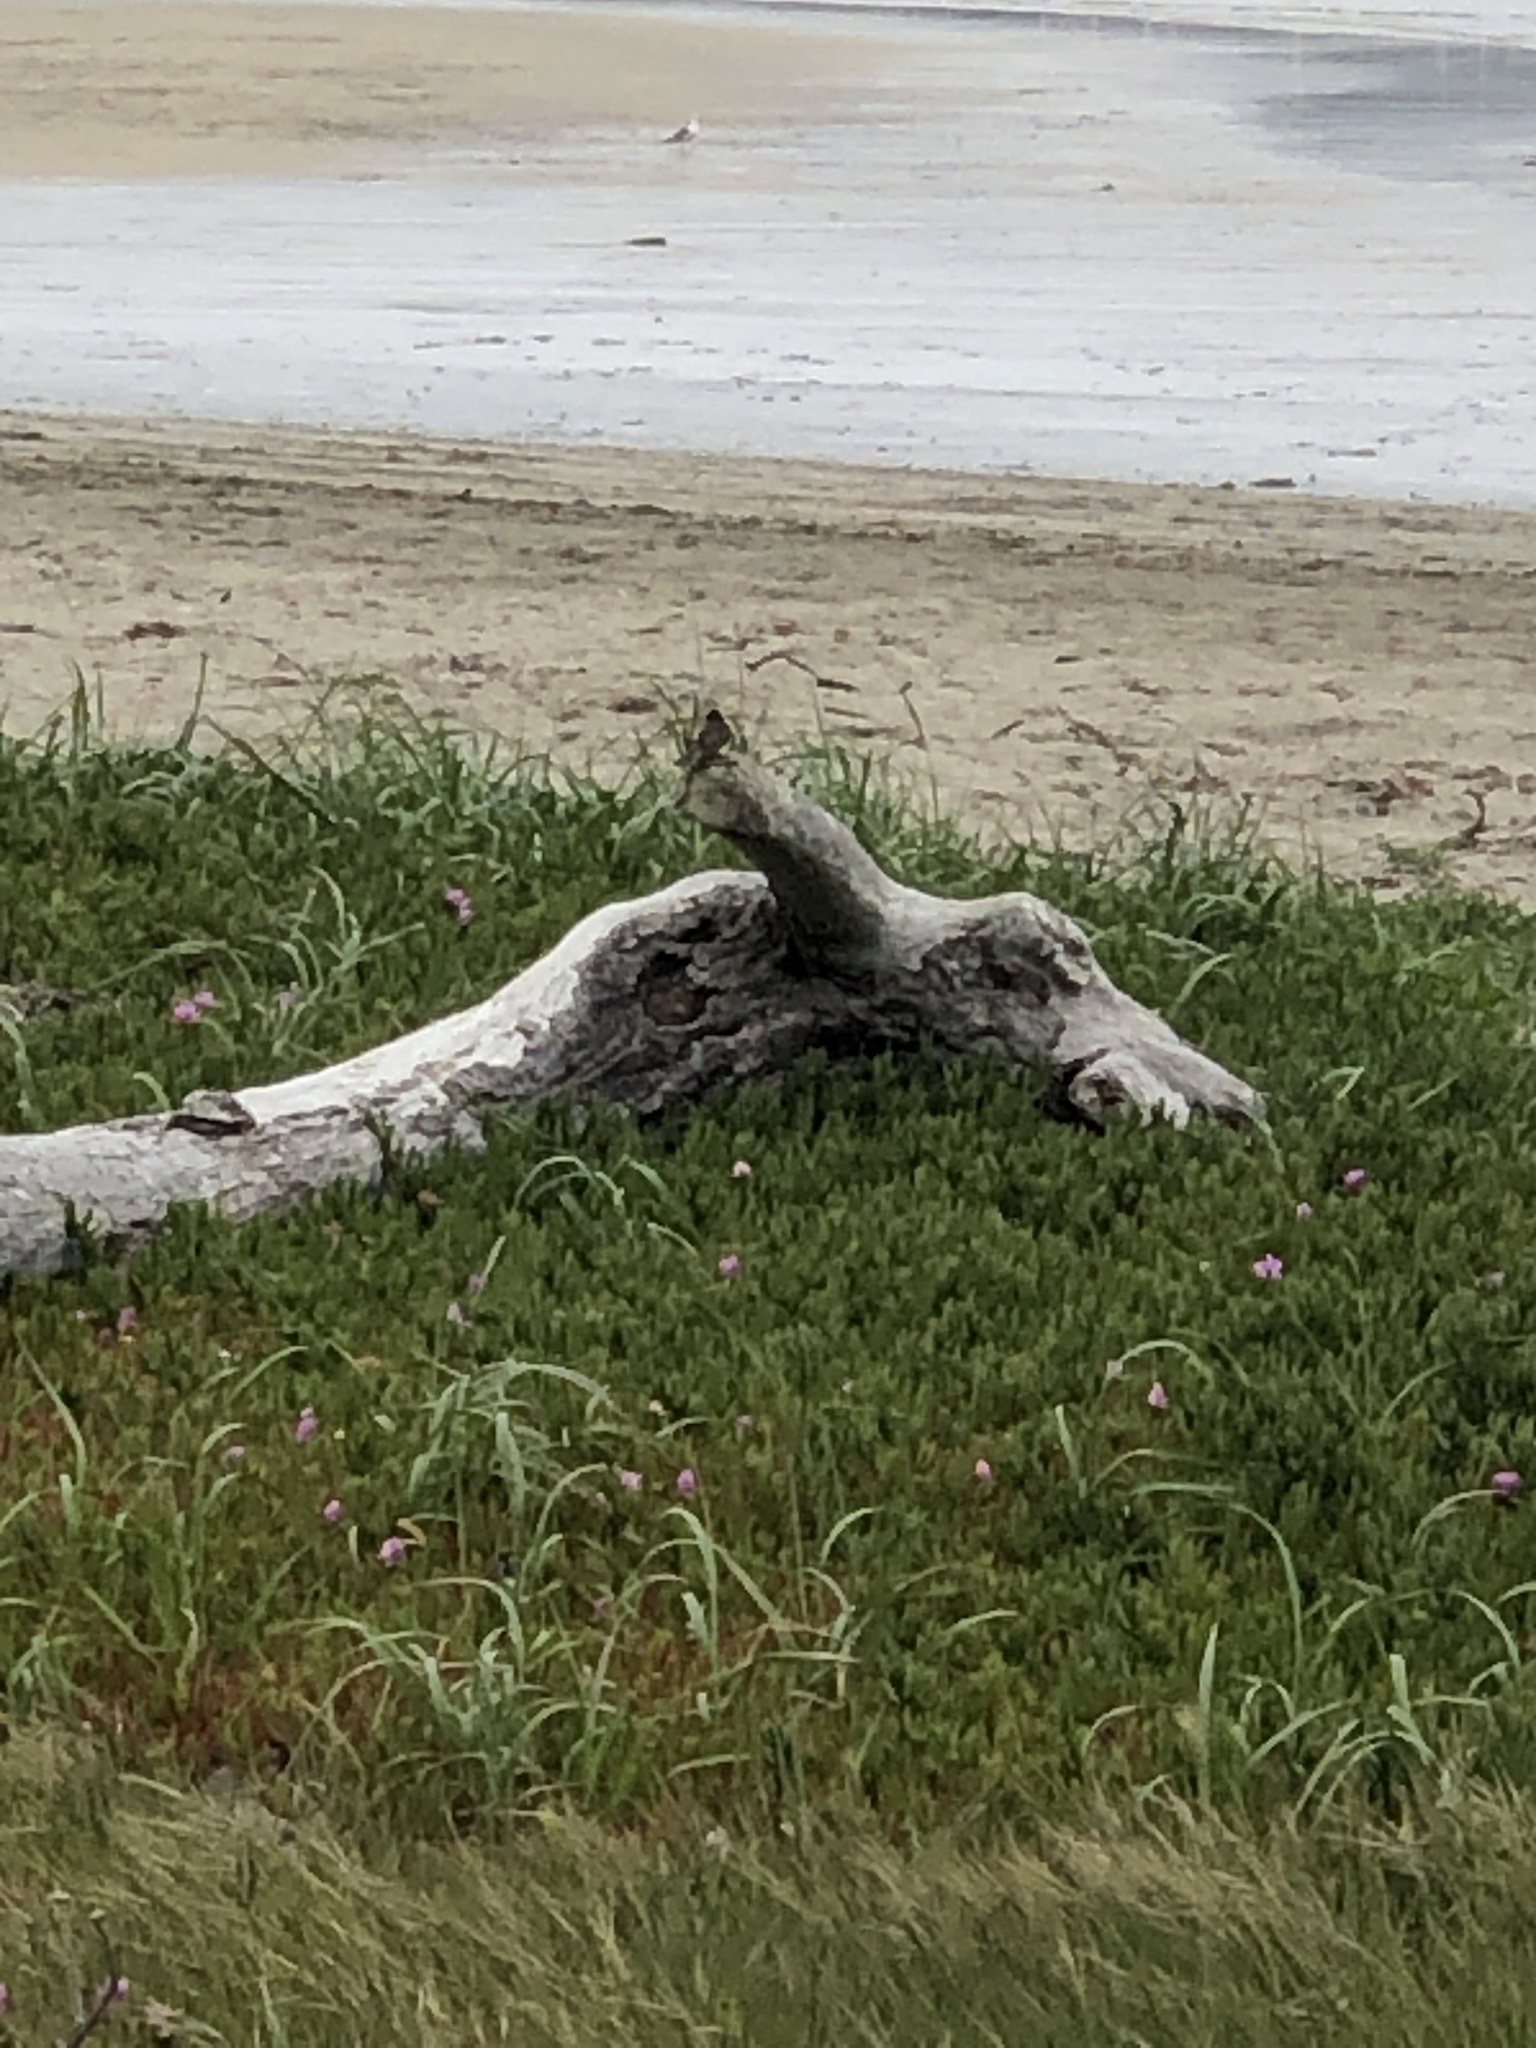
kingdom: Animalia
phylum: Chordata
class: Aves
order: Passeriformes
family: Tyrannidae
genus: Sayornis
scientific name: Sayornis nigricans
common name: Black phoebe
